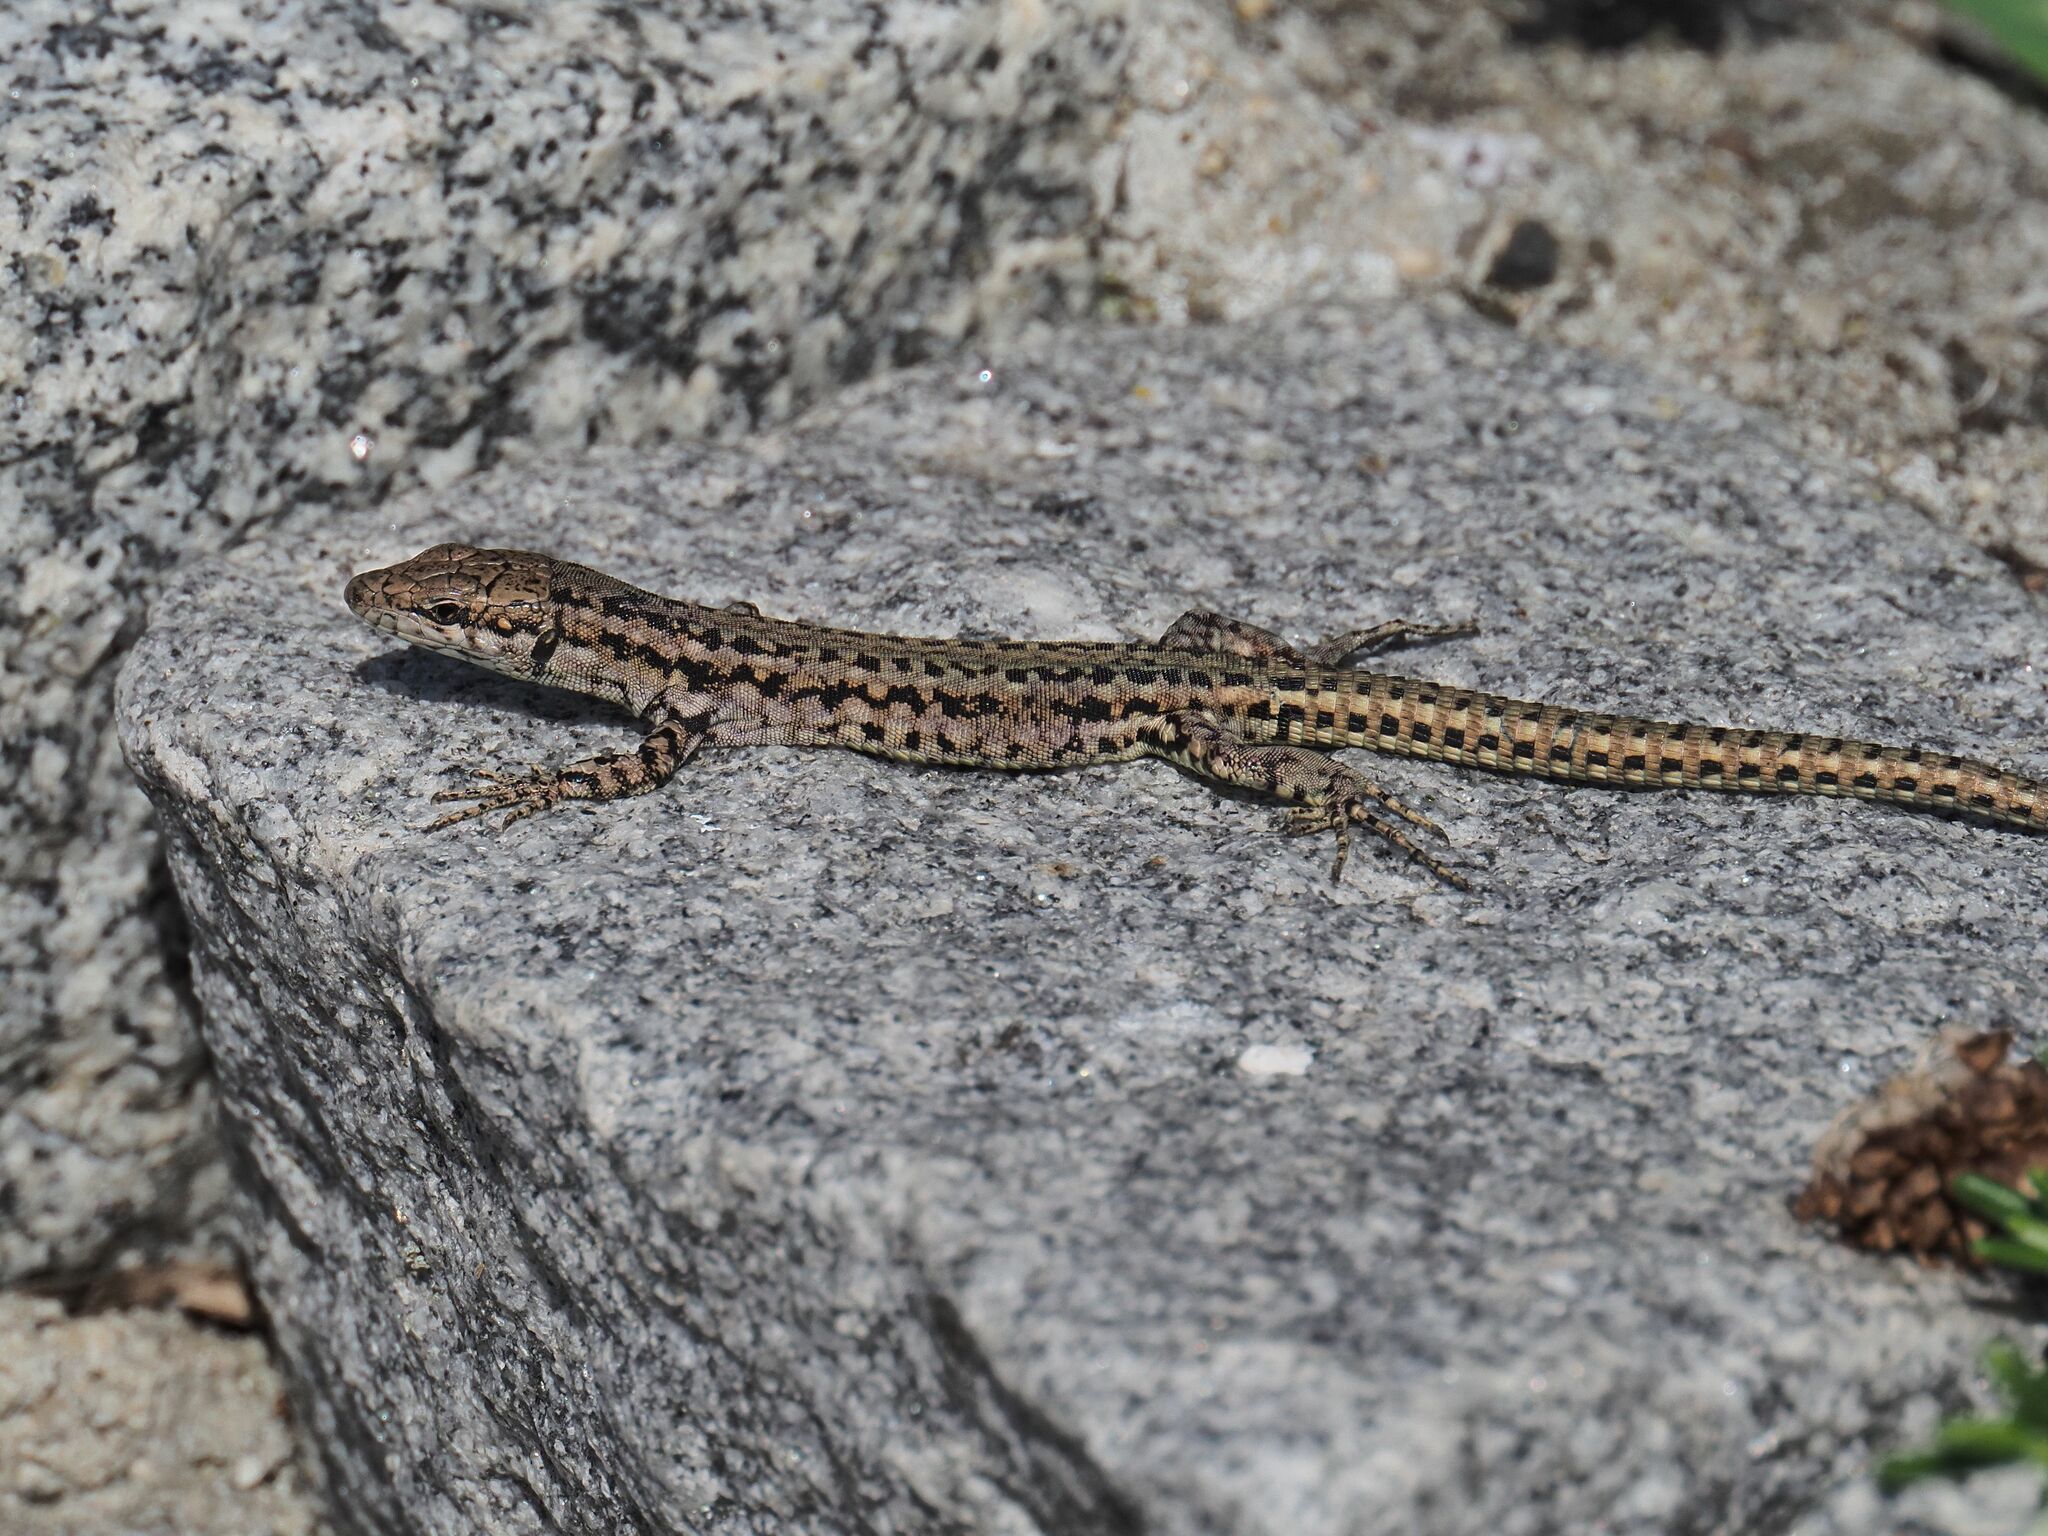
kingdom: Animalia
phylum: Chordata
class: Squamata
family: Lacertidae
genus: Podarcis
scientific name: Podarcis virescens
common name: Geniez’s wall lizard
